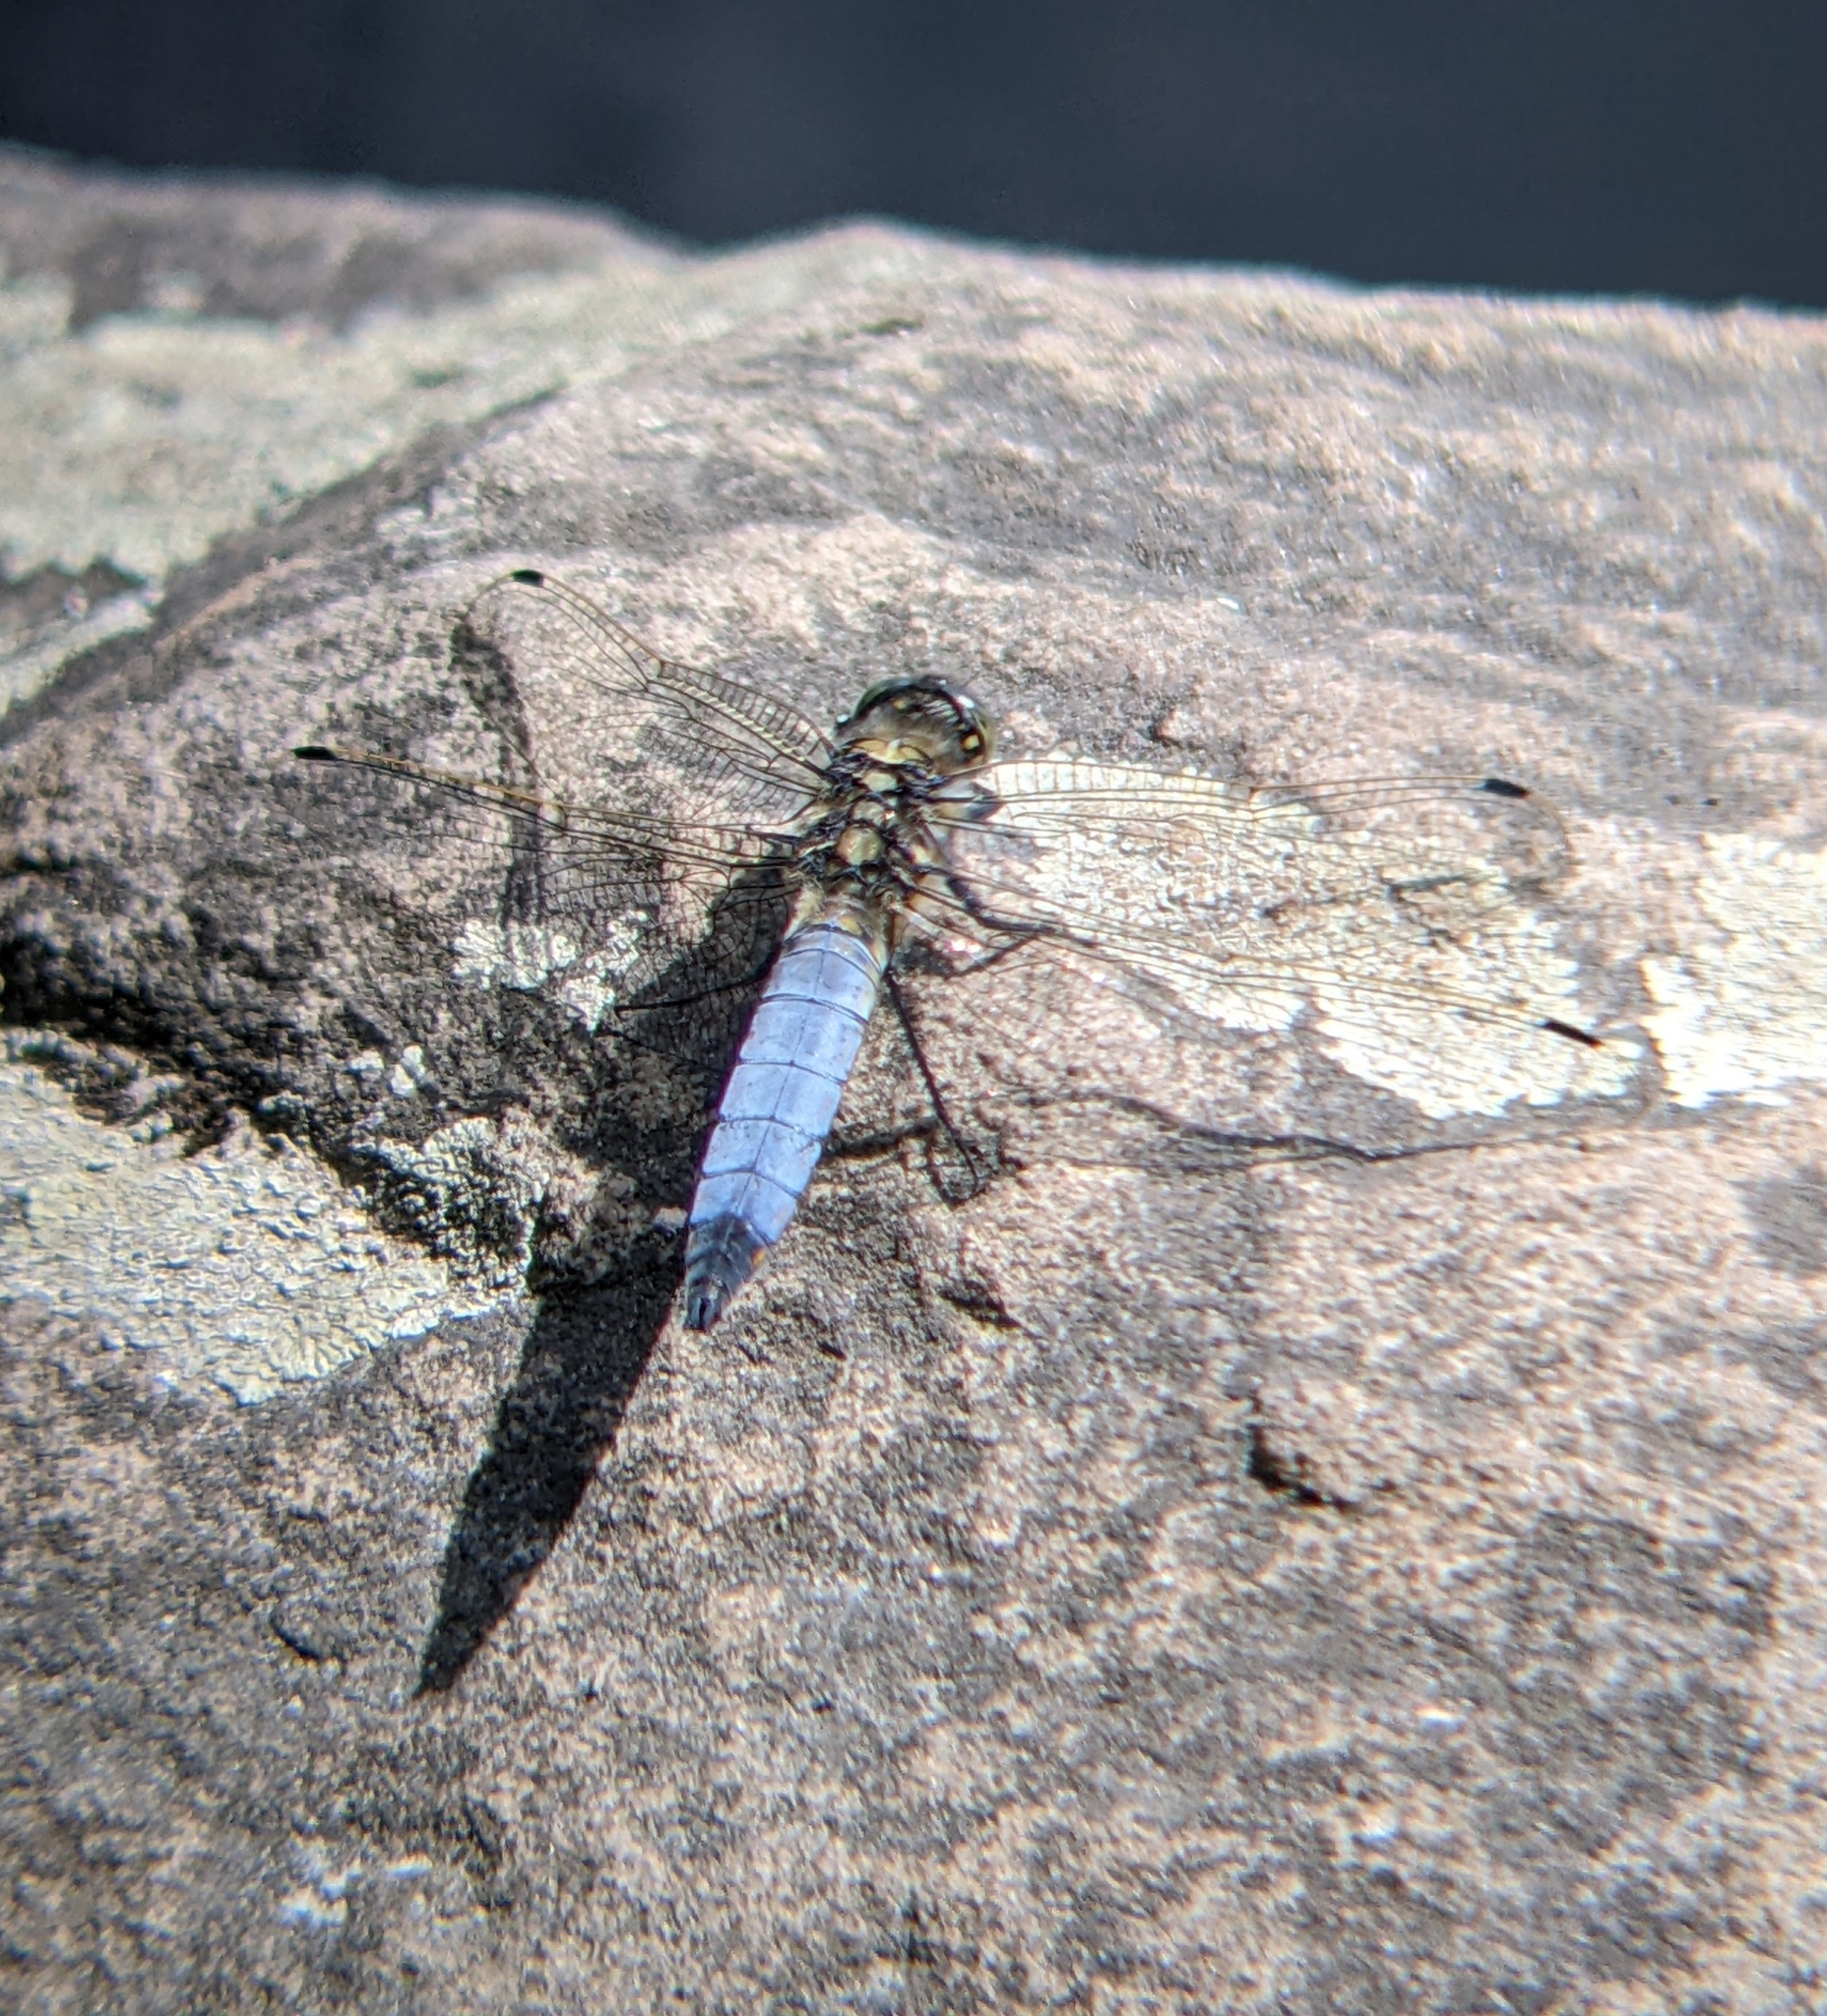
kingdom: Animalia
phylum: Arthropoda
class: Insecta
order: Odonata
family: Libellulidae
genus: Orthetrum
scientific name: Orthetrum cancellatum
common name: Black-tailed skimmer
